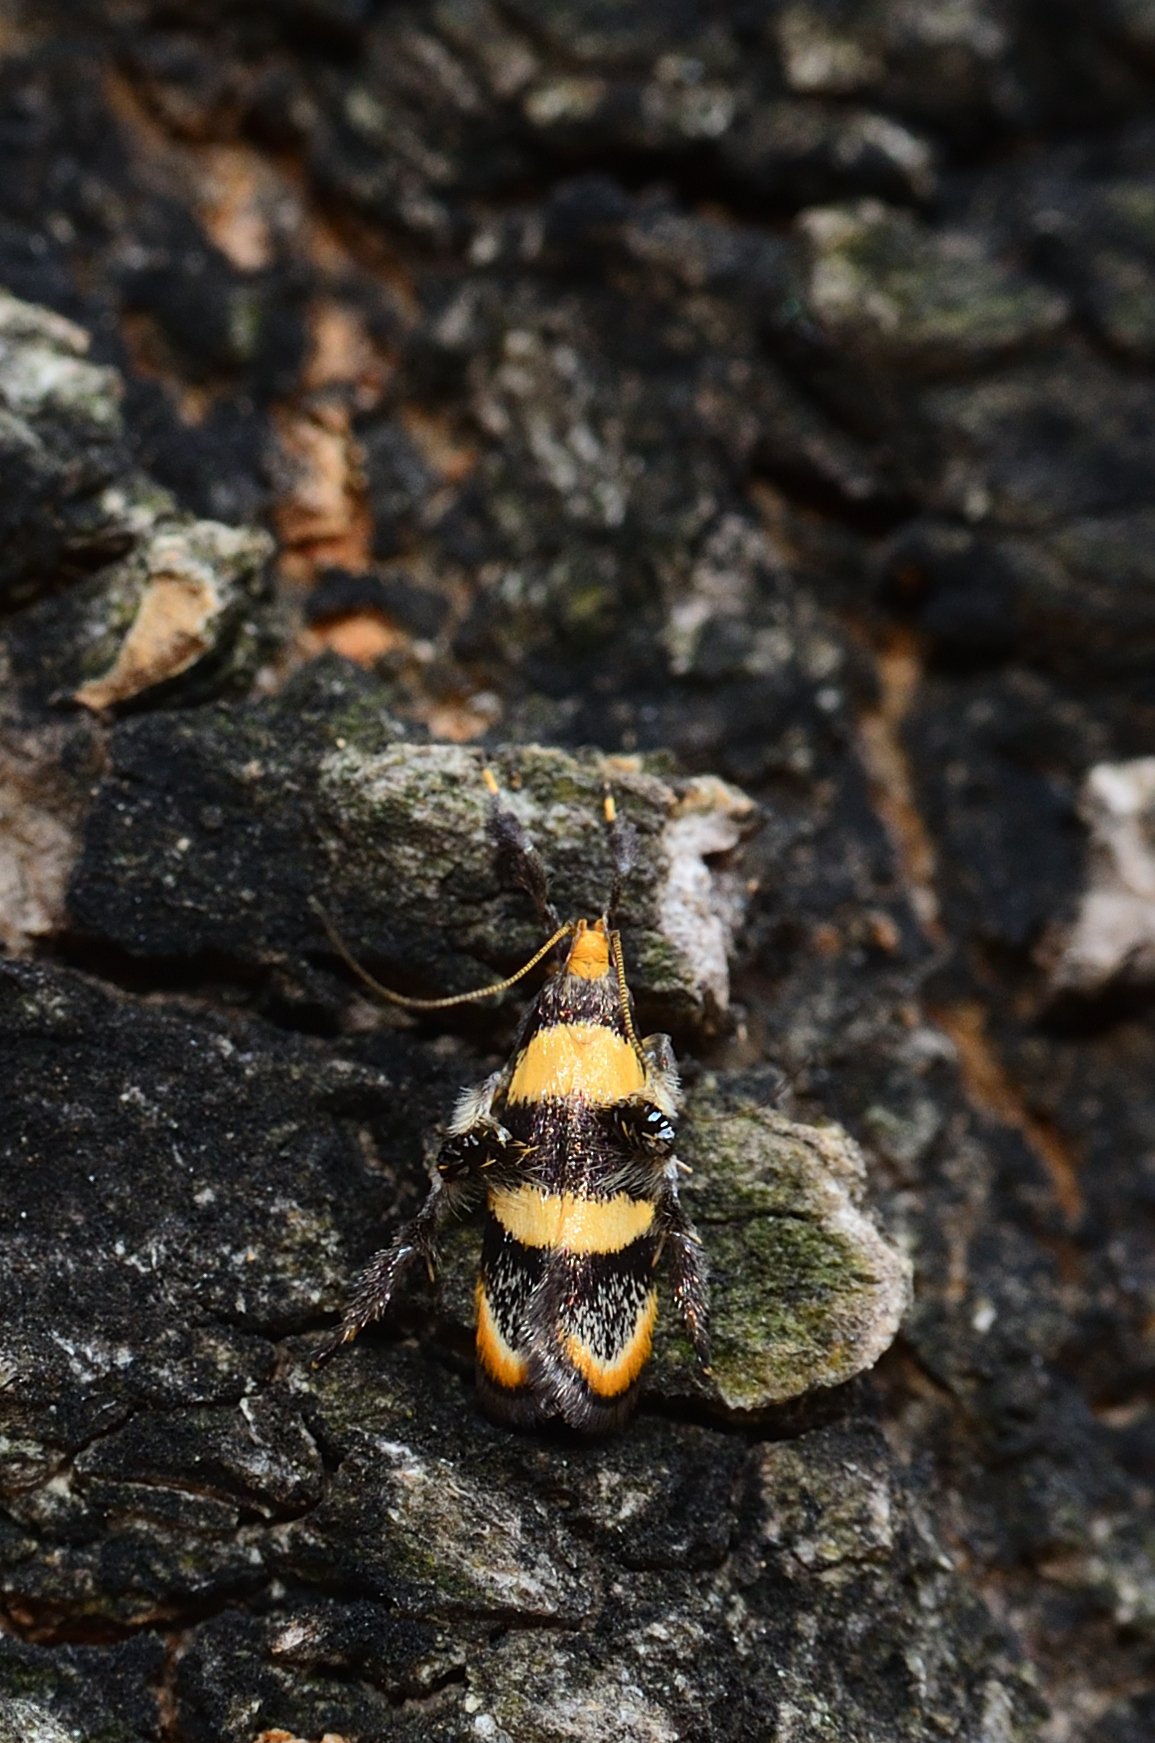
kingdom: Animalia
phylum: Arthropoda
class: Insecta
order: Lepidoptera
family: Lecithoceridae
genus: Tisis
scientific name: Tisis
